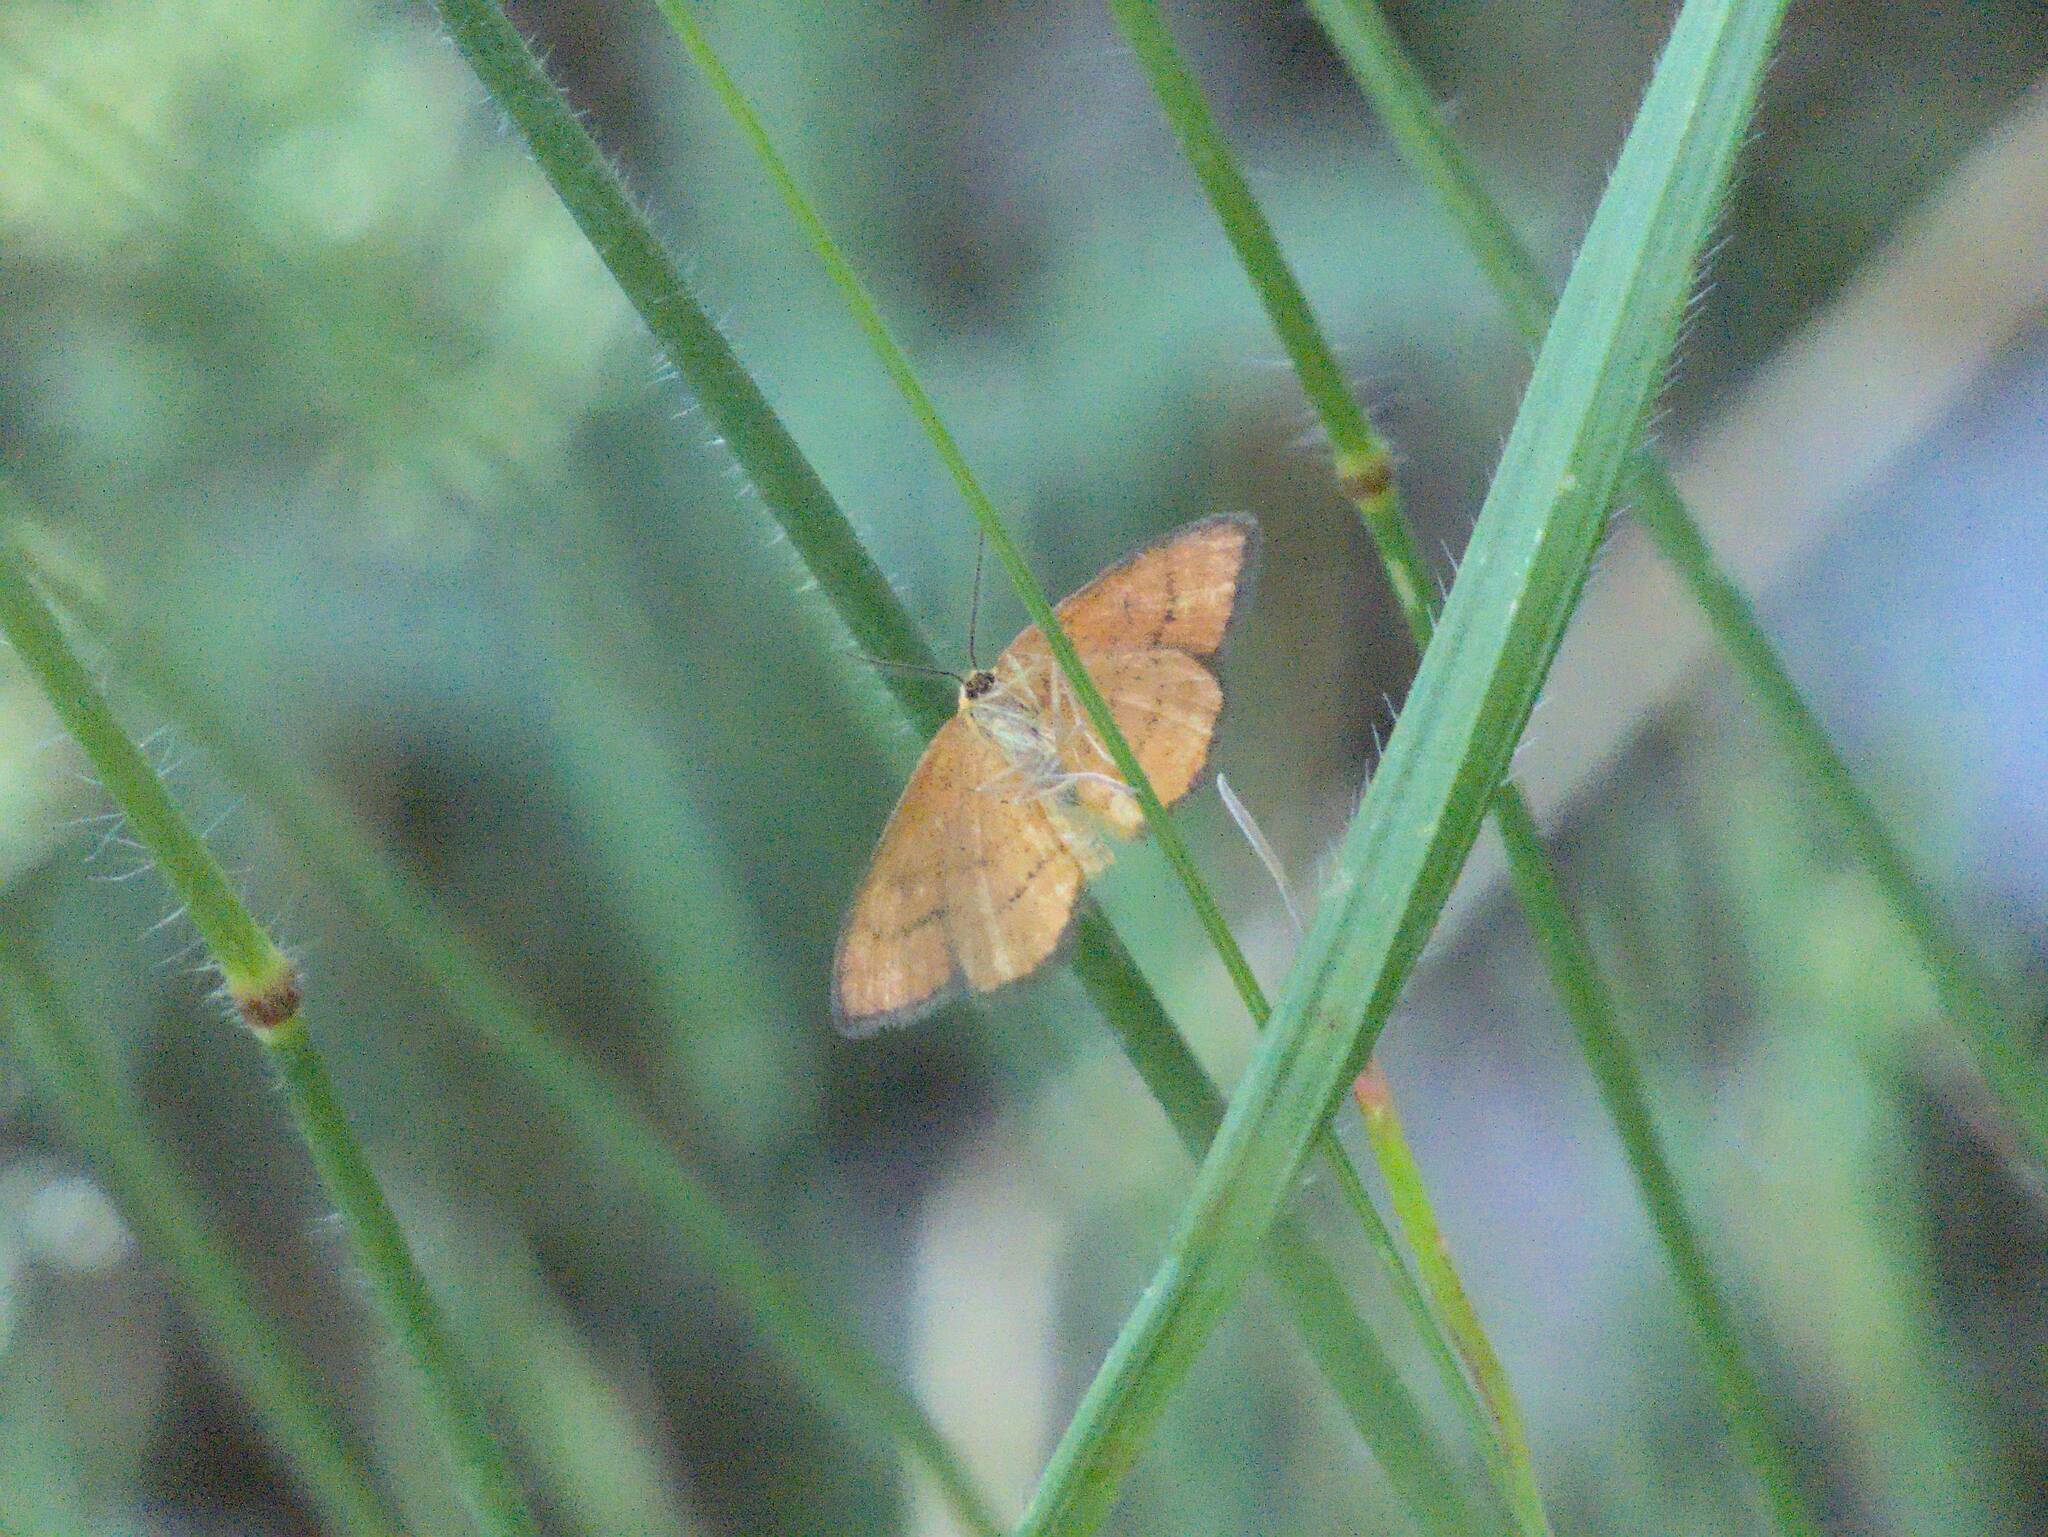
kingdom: Animalia
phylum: Arthropoda
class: Insecta
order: Lepidoptera
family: Geometridae
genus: Idaea
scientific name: Idaea flaveolaria
